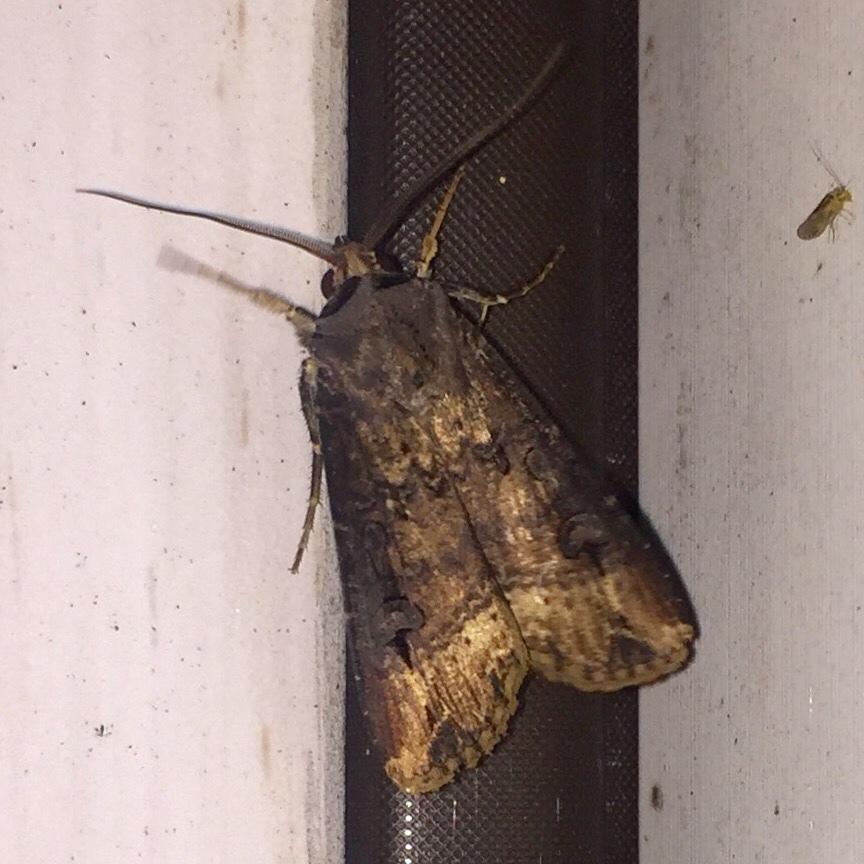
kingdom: Animalia
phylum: Arthropoda
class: Insecta
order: Lepidoptera
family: Noctuidae
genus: Agrotis
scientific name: Agrotis ipsilon
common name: Dark sword-grass
